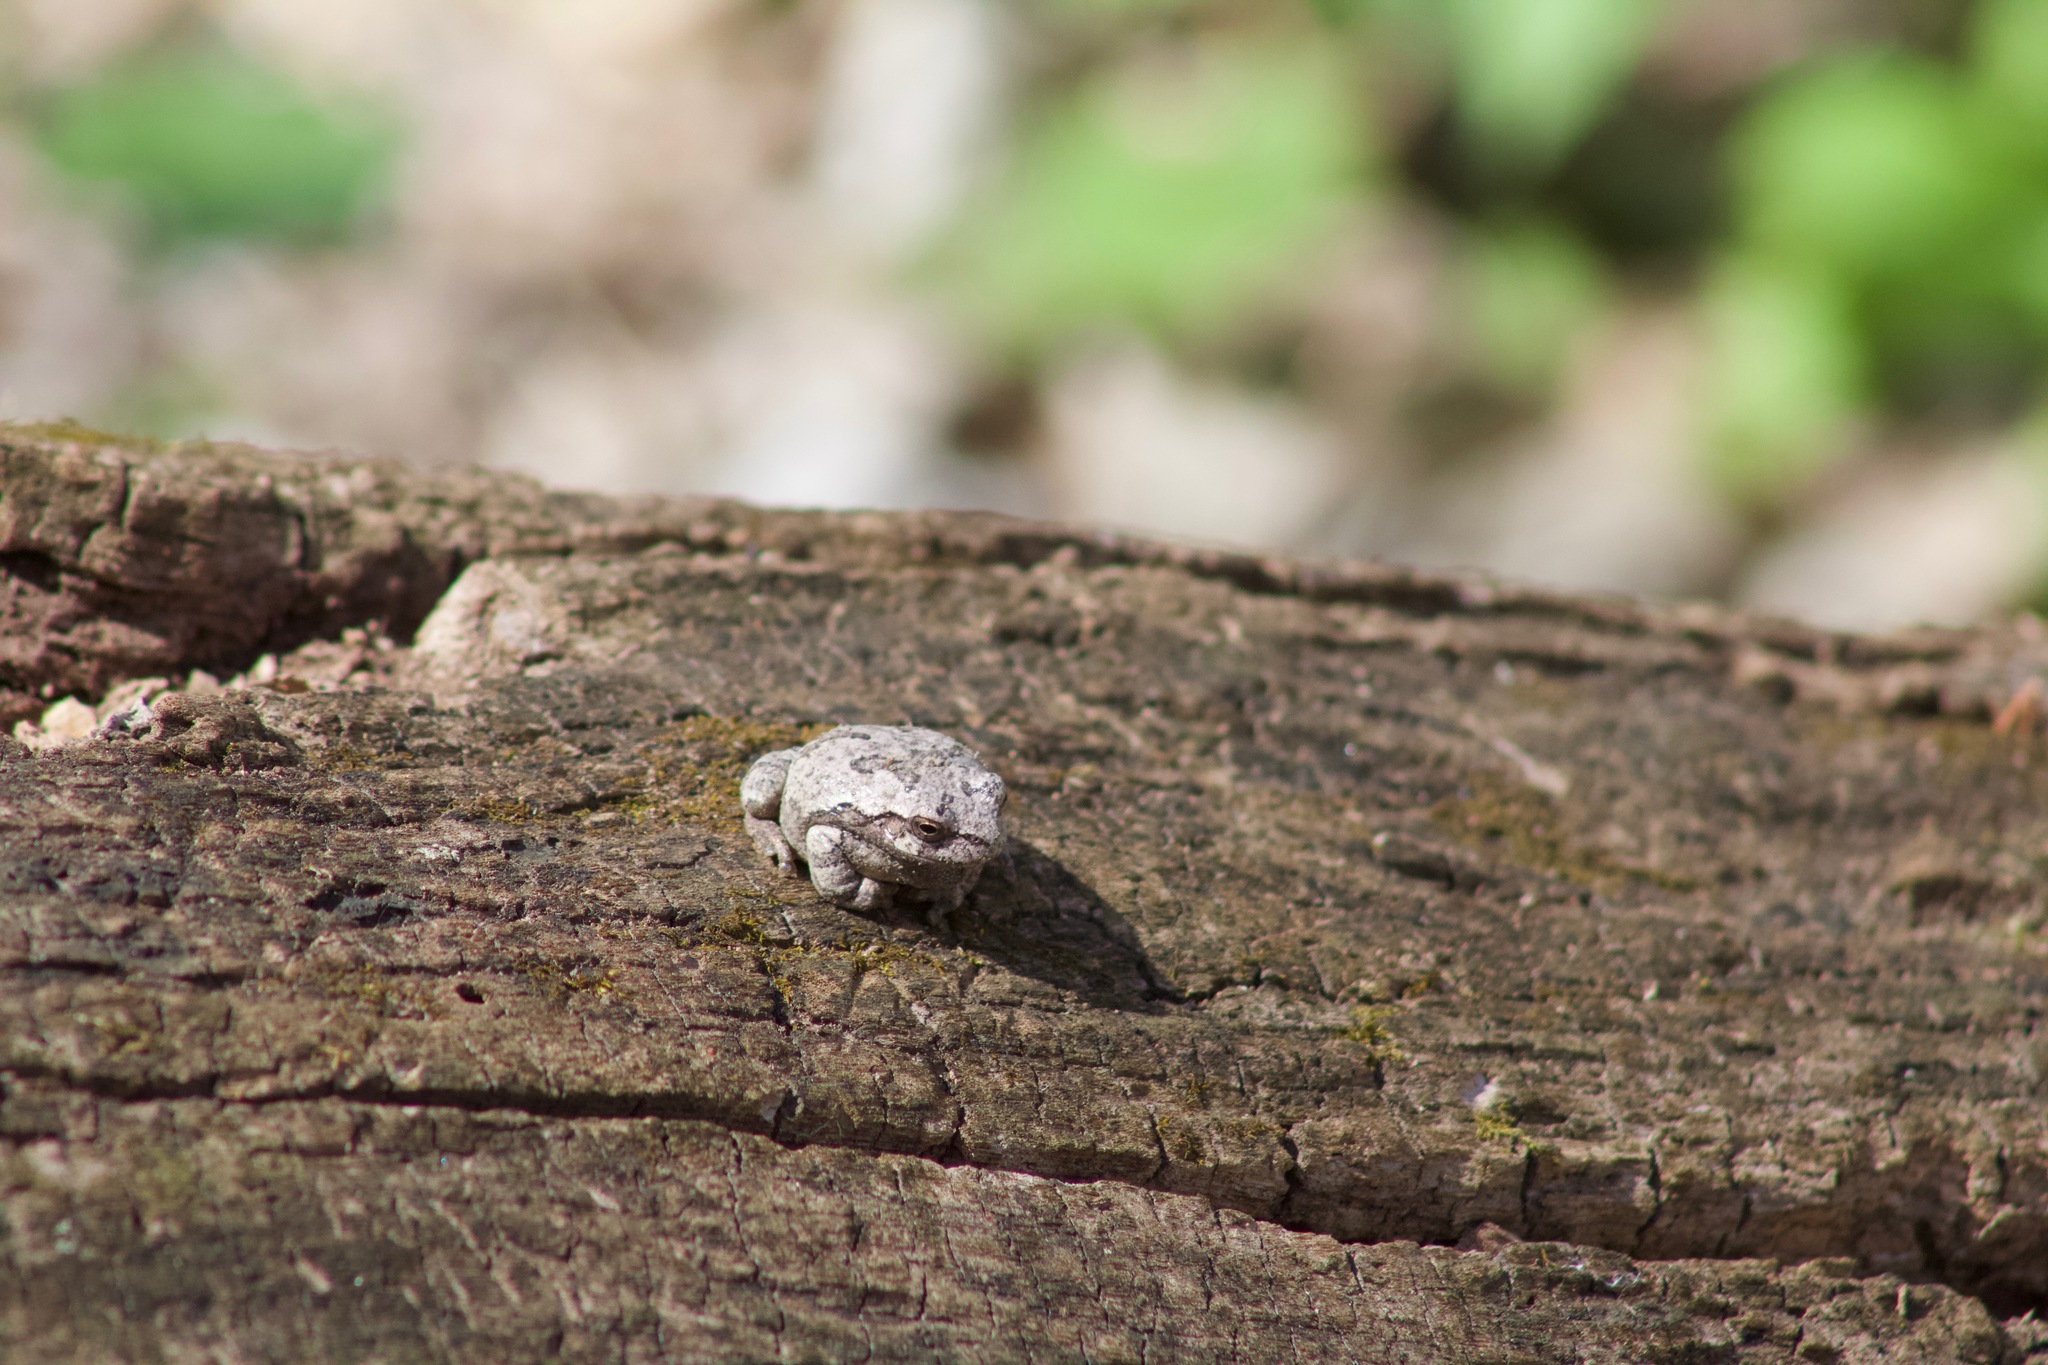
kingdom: Animalia
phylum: Chordata
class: Amphibia
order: Anura
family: Hylidae
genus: Hyla
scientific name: Hyla
